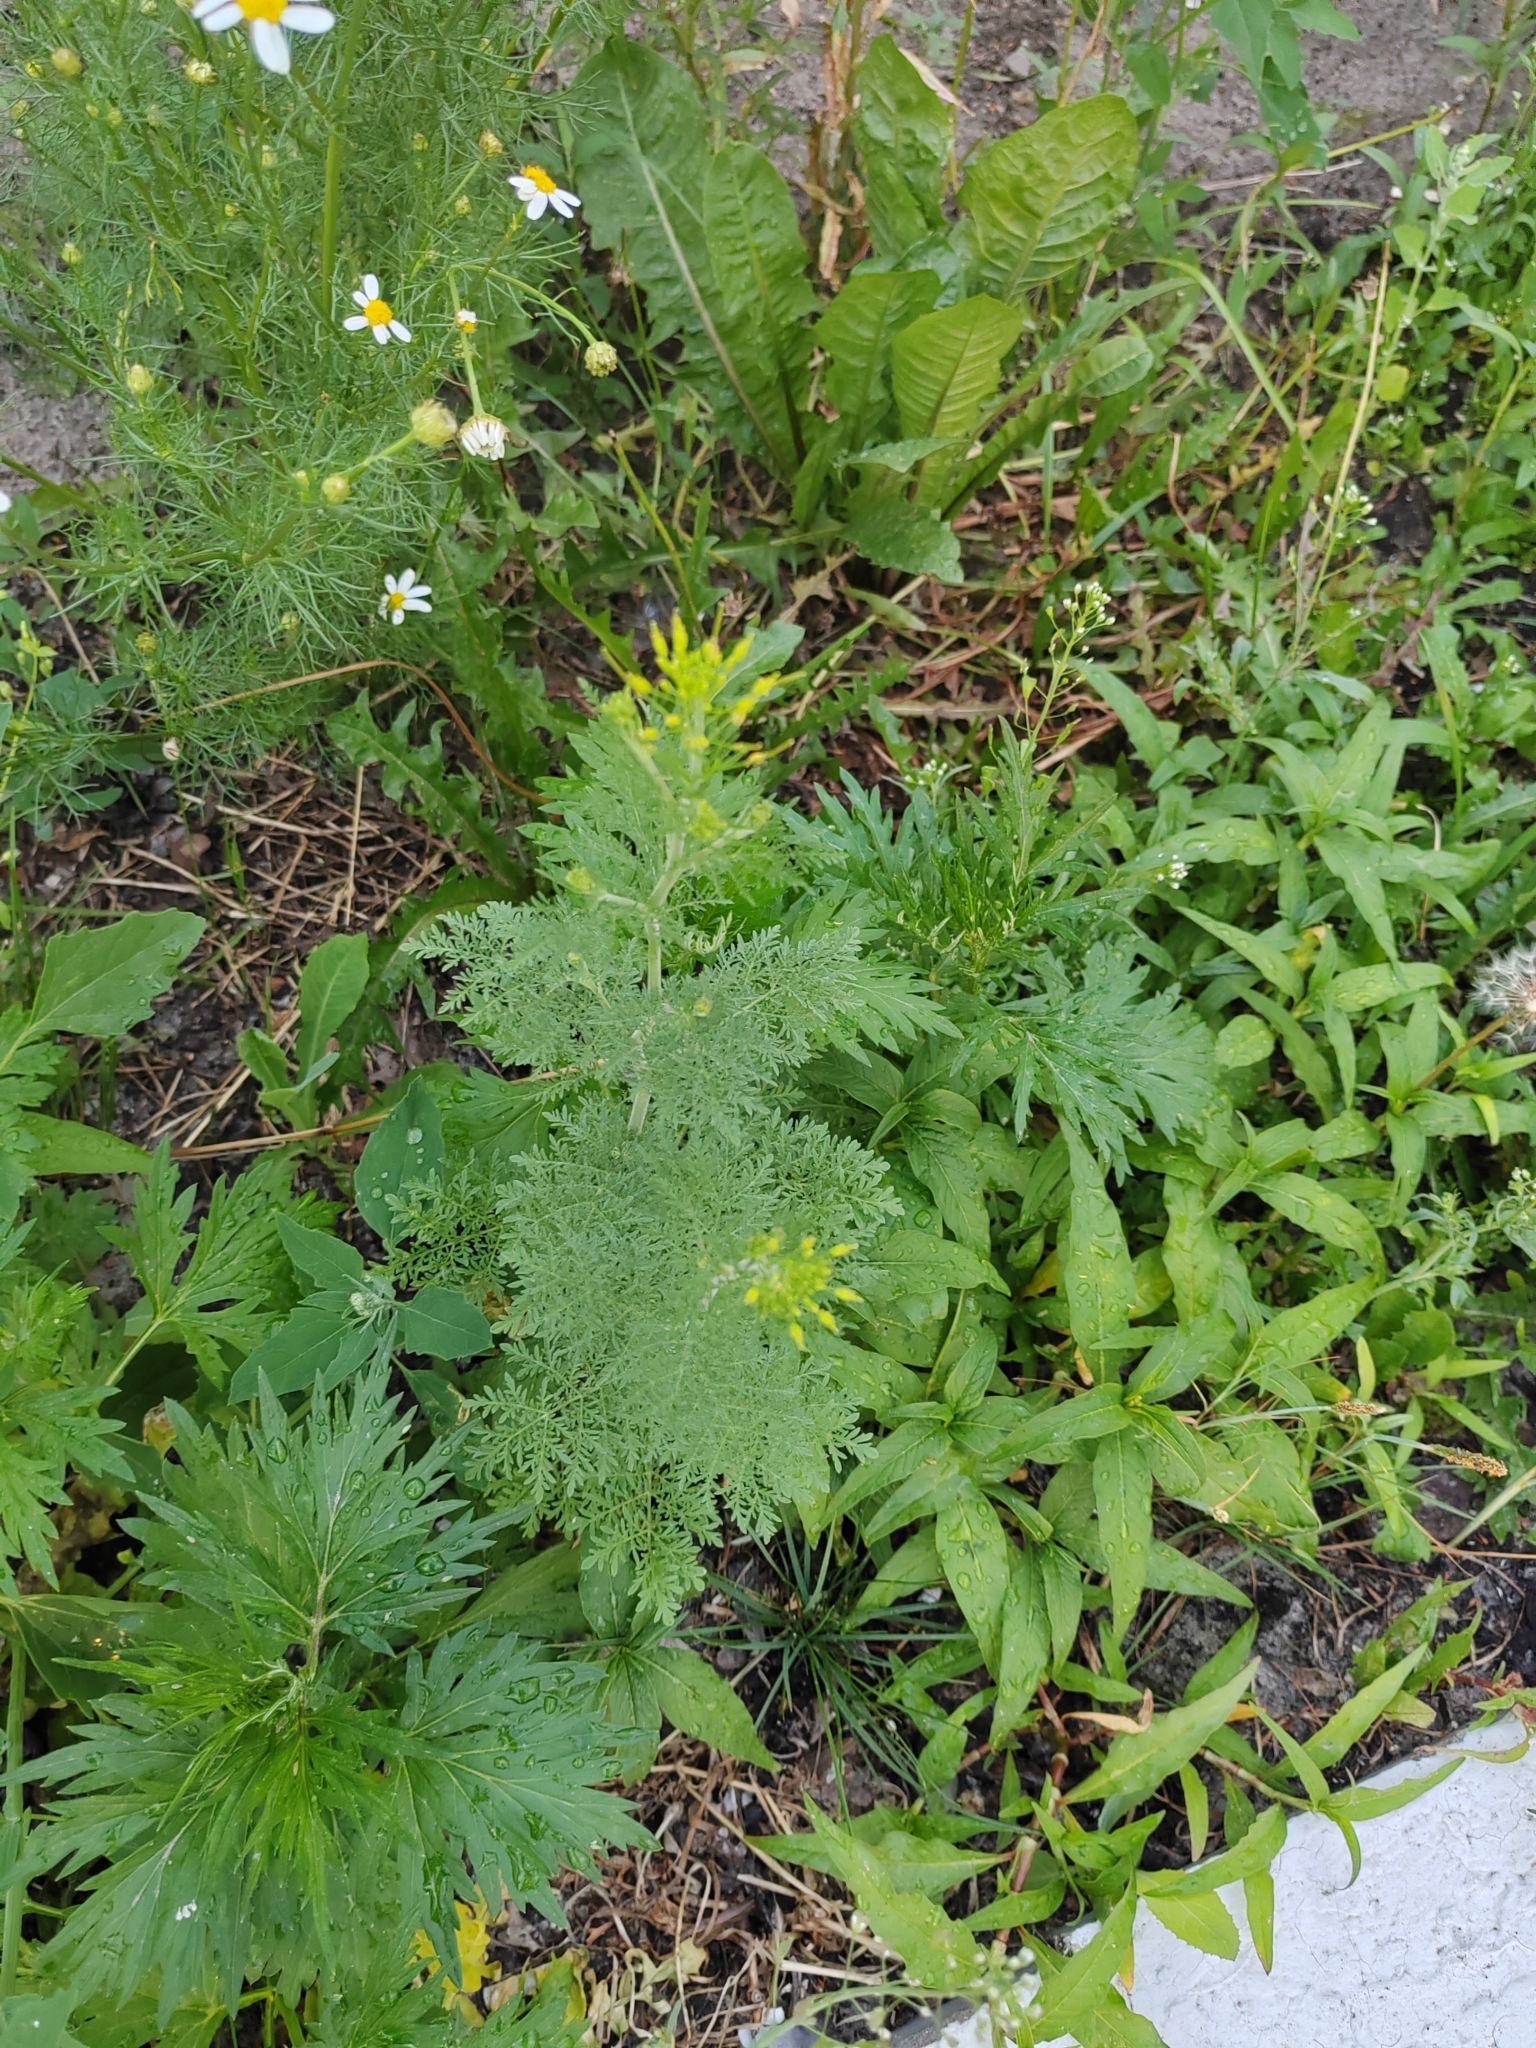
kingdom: Plantae
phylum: Tracheophyta
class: Magnoliopsida
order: Brassicales
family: Brassicaceae
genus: Descurainia
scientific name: Descurainia sophia
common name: Flixweed
